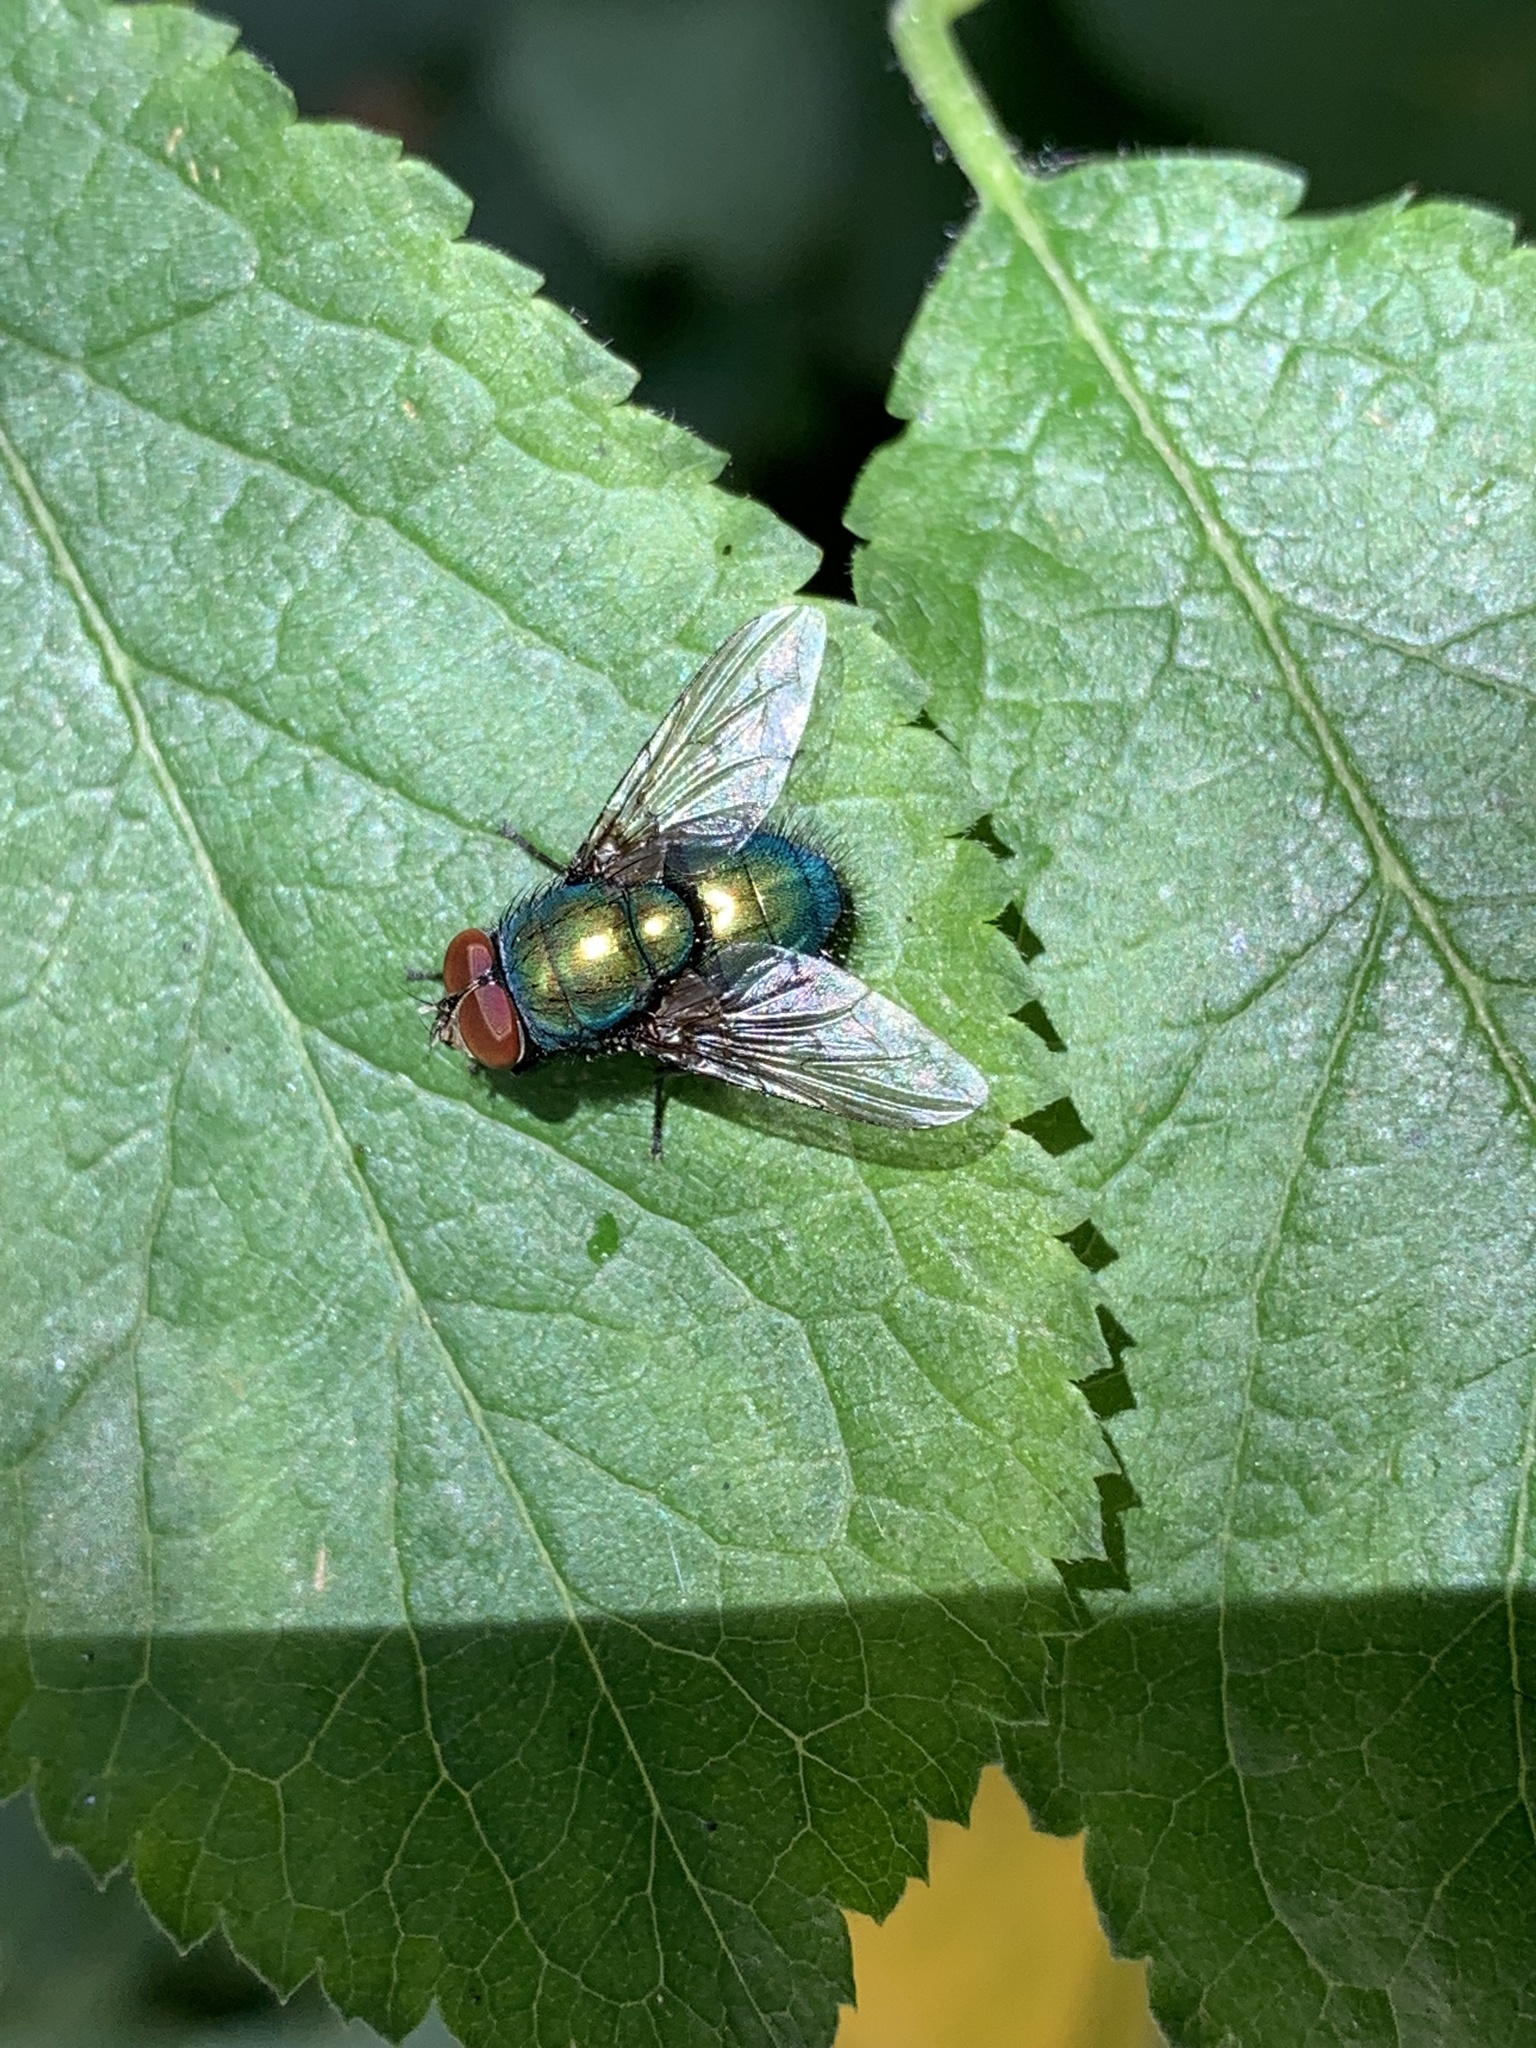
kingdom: Animalia
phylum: Arthropoda
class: Insecta
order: Diptera
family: Calliphoridae
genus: Lucilia
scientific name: Lucilia
